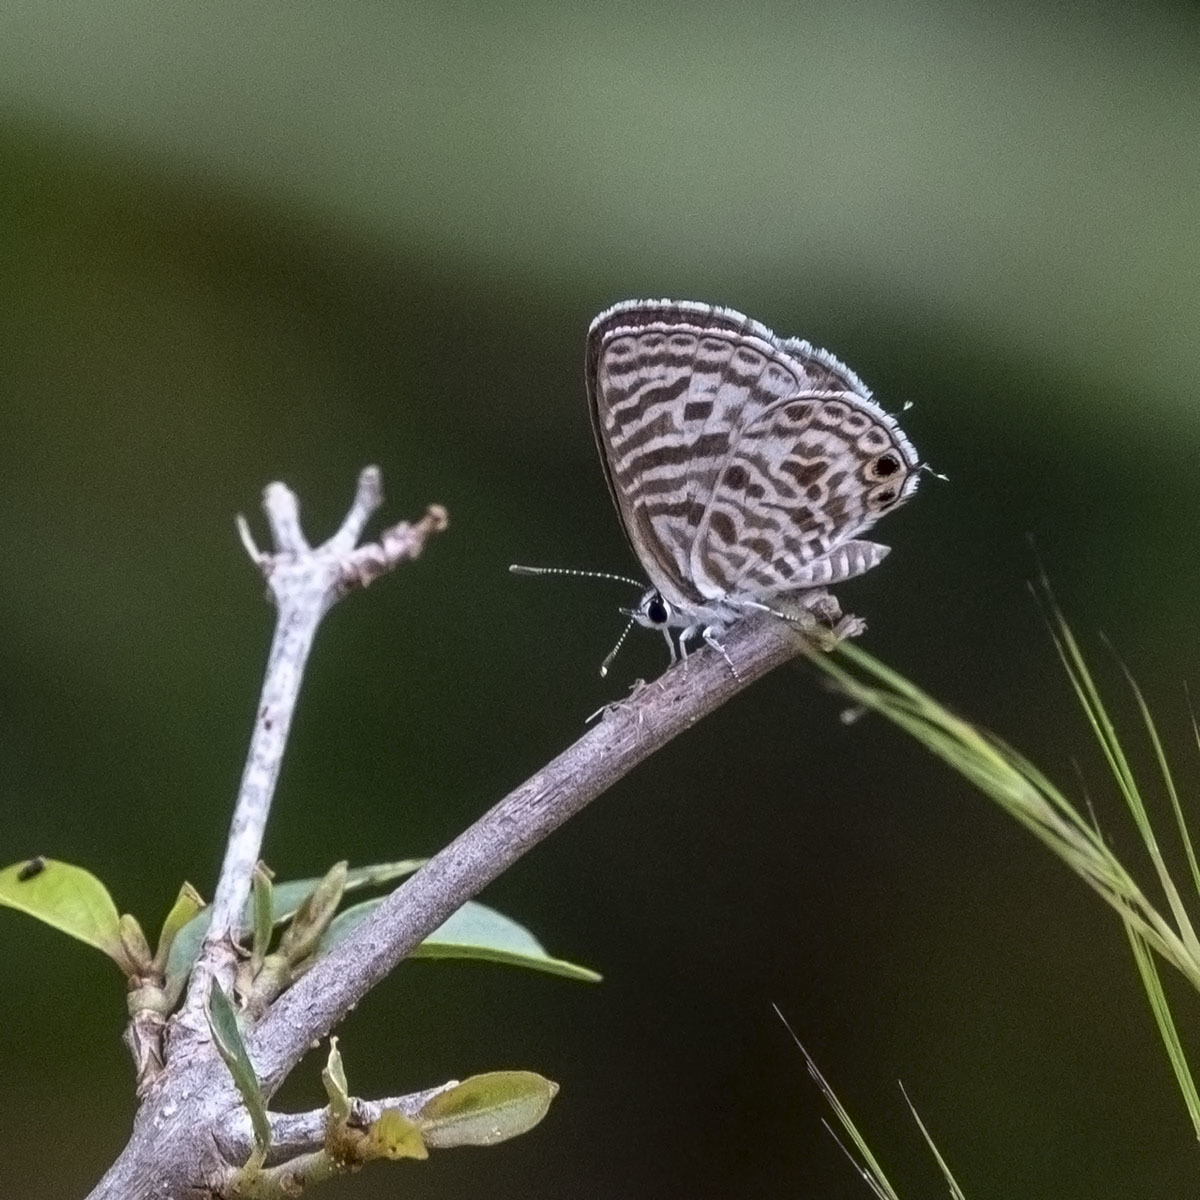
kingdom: Animalia
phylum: Arthropoda
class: Insecta
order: Lepidoptera
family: Lycaenidae
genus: Leptotes
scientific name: Leptotes plinius
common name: Zebra blue
